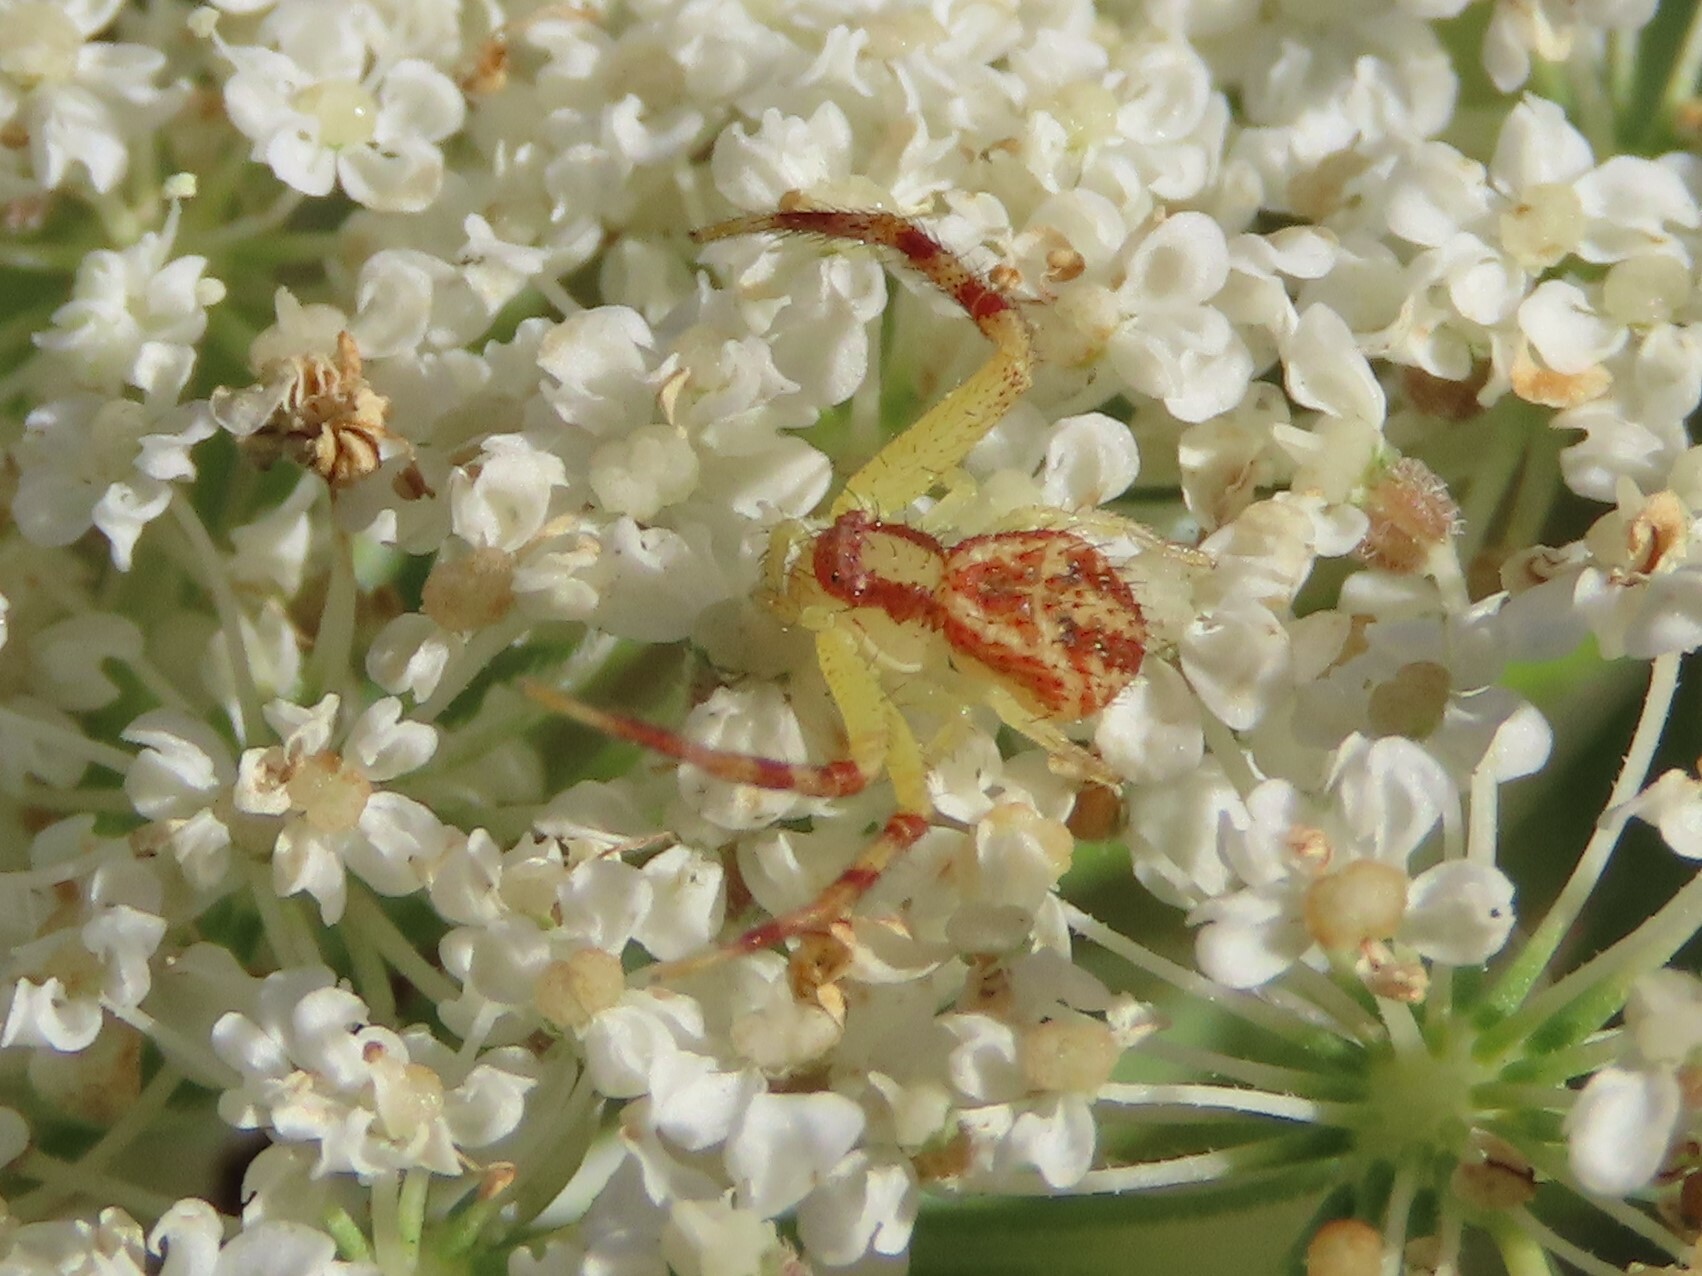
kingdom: Animalia
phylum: Arthropoda
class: Arachnida
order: Araneae
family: Thomisidae
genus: Mecaphesa
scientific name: Mecaphesa asperata
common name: Crab spiders
